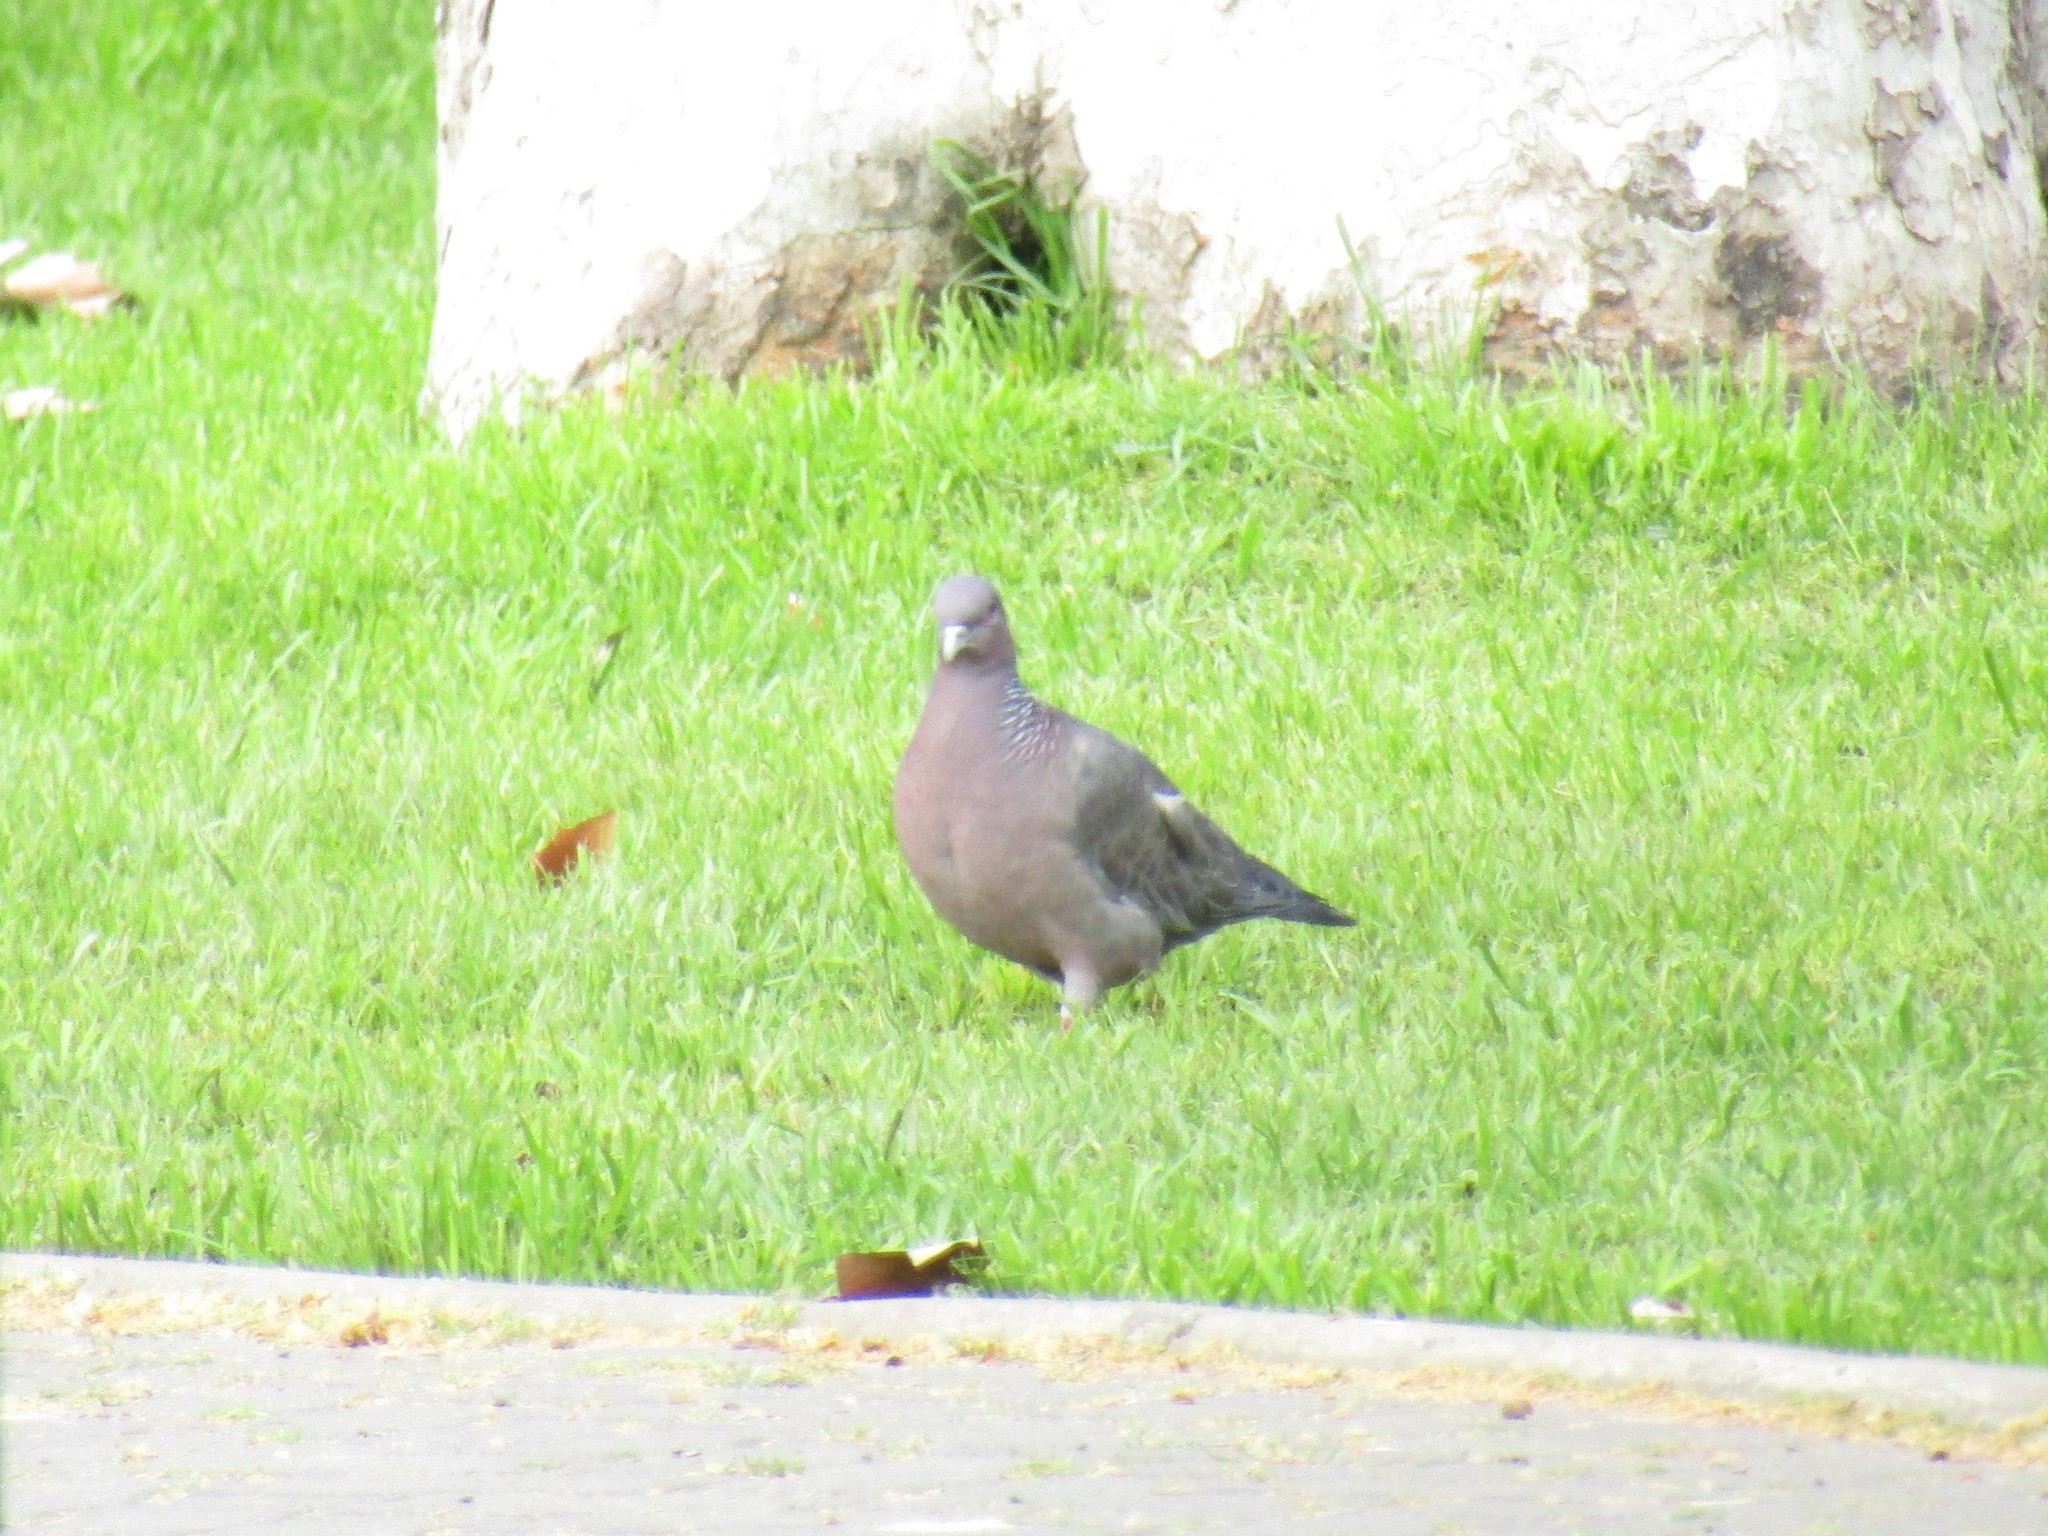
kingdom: Animalia
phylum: Chordata
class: Aves
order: Columbiformes
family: Columbidae
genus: Patagioenas
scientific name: Patagioenas picazuro
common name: Picazuro pigeon
